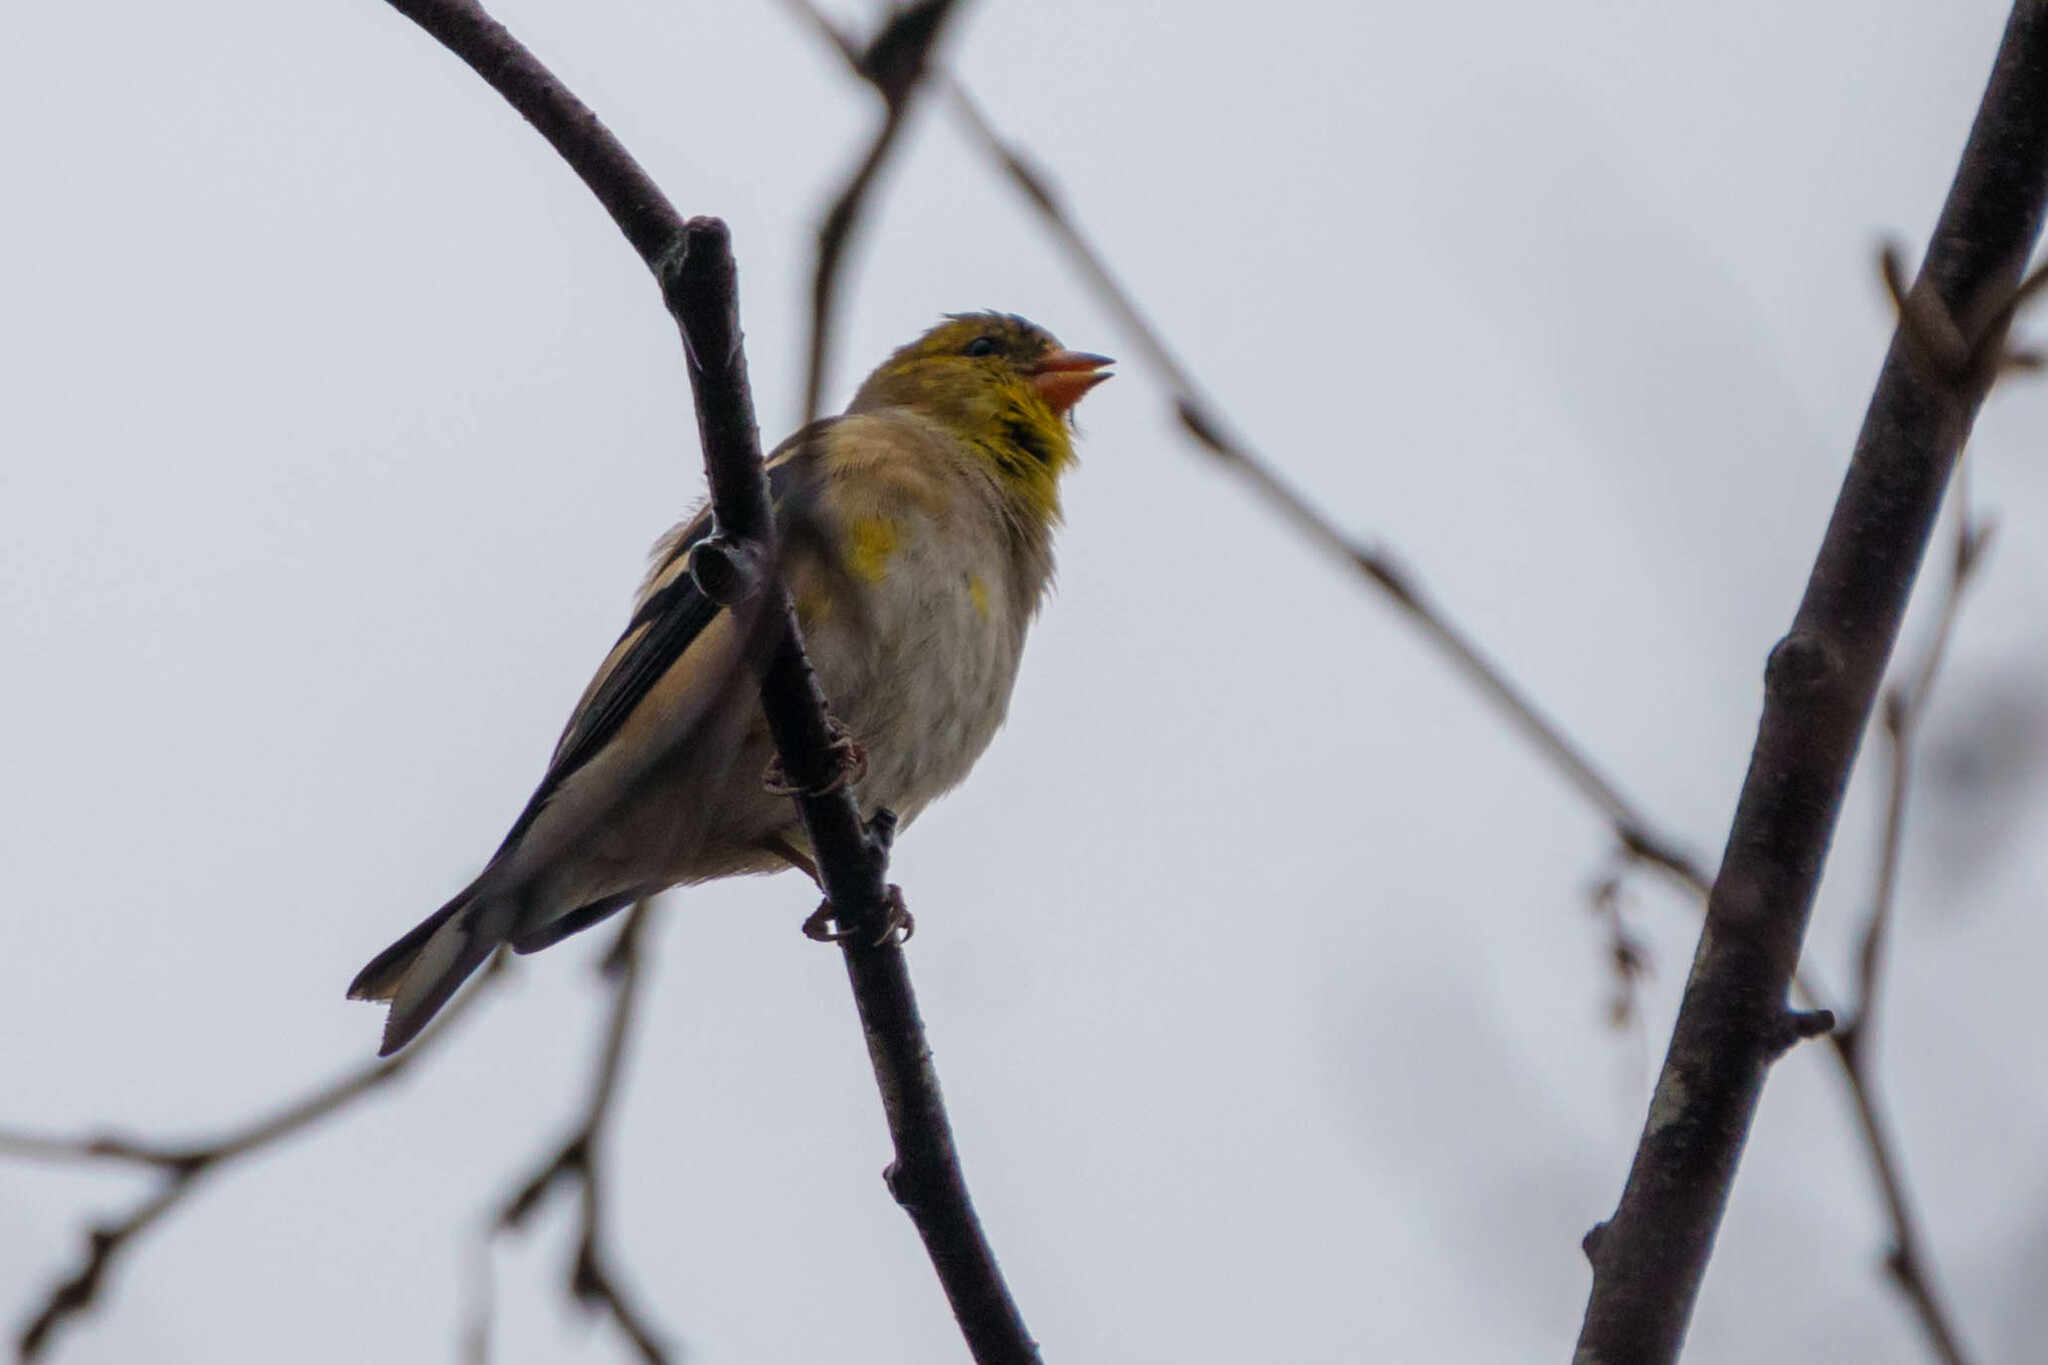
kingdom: Animalia
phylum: Chordata
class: Aves
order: Passeriformes
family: Fringillidae
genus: Spinus
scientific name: Spinus tristis
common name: American goldfinch
